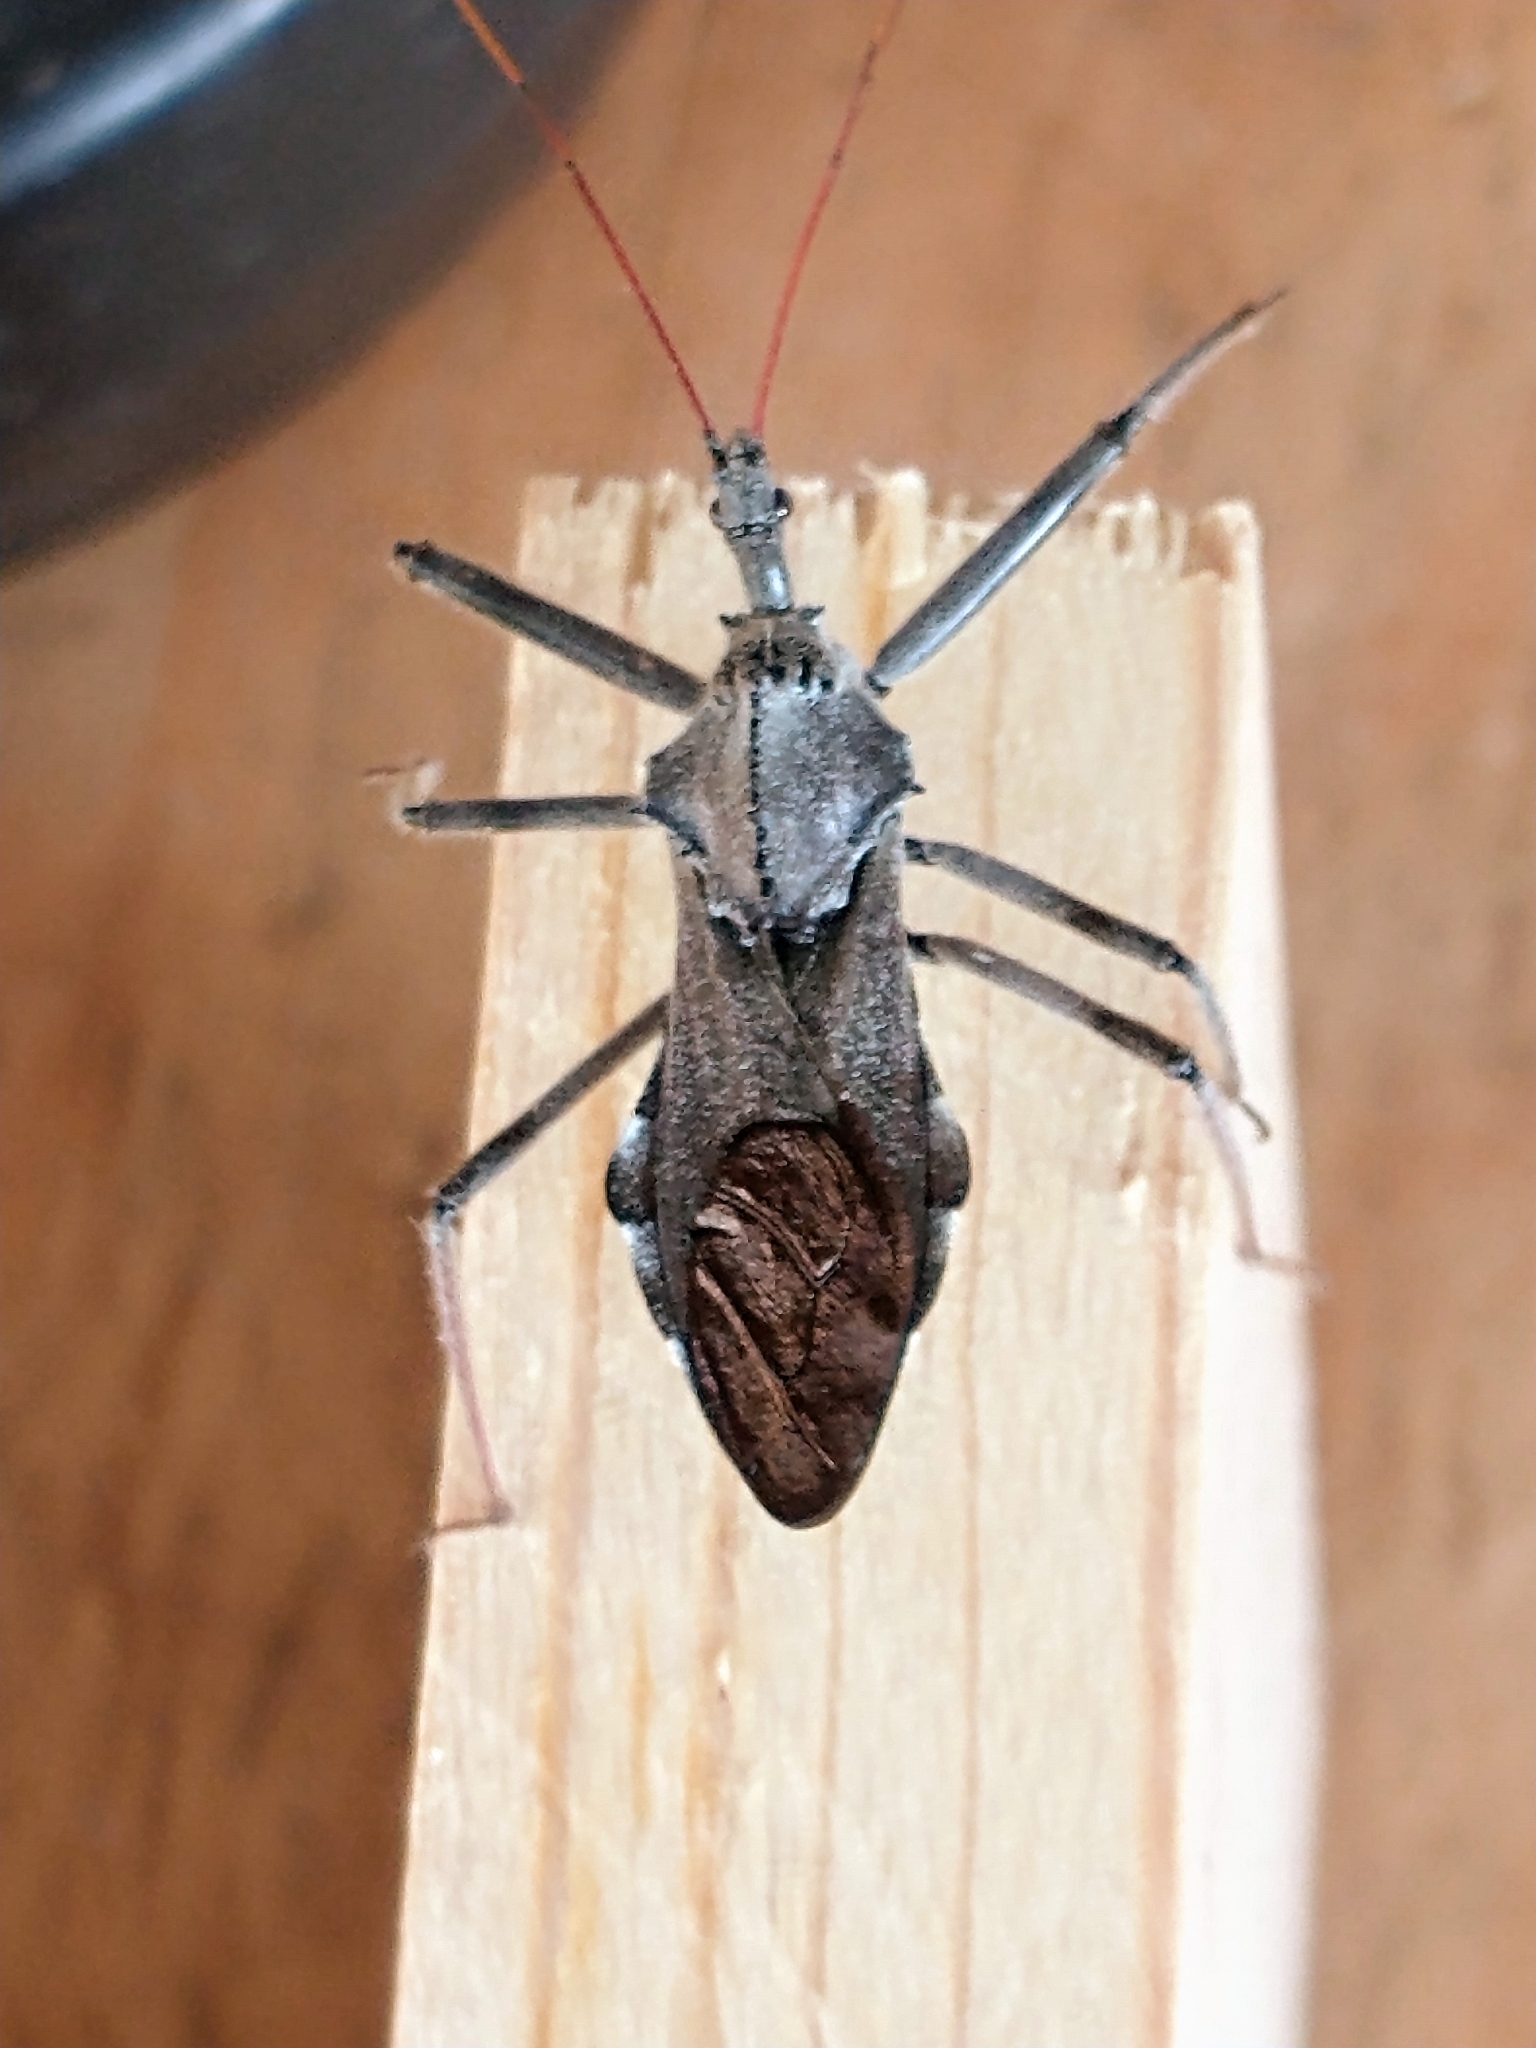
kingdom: Animalia
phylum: Arthropoda
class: Insecta
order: Hemiptera
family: Reduviidae
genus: Arilus
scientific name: Arilus cristatus
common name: North american wheel bug
